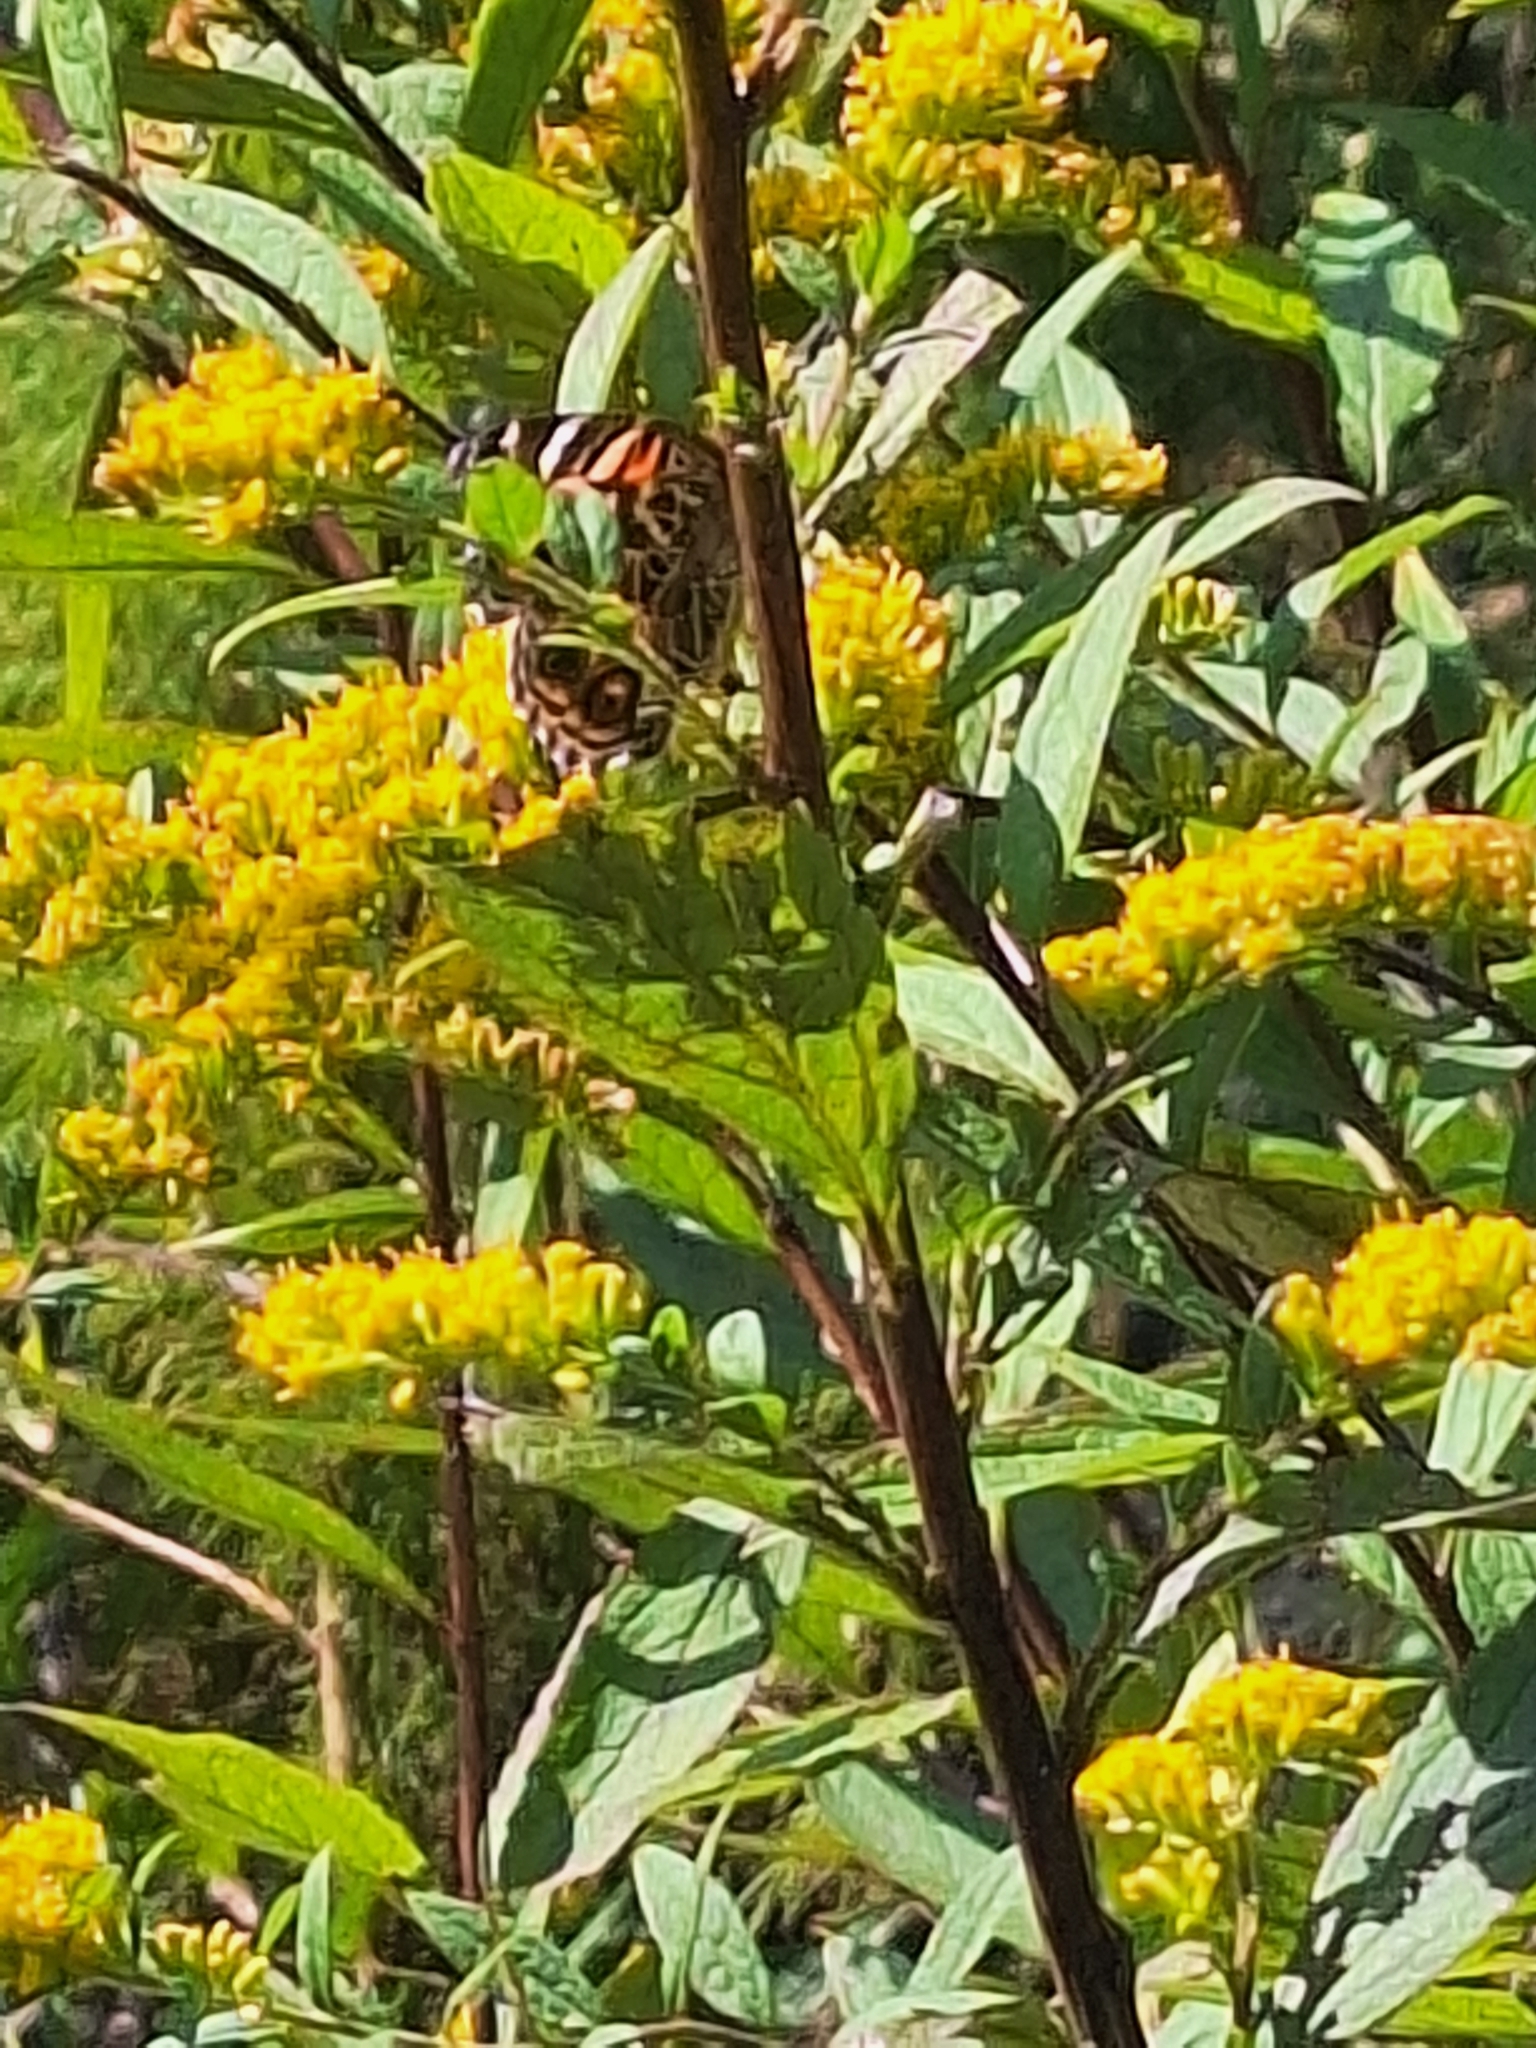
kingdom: Animalia
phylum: Arthropoda
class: Insecta
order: Lepidoptera
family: Nymphalidae
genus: Vanessa
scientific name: Vanessa virginiensis
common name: American lady
